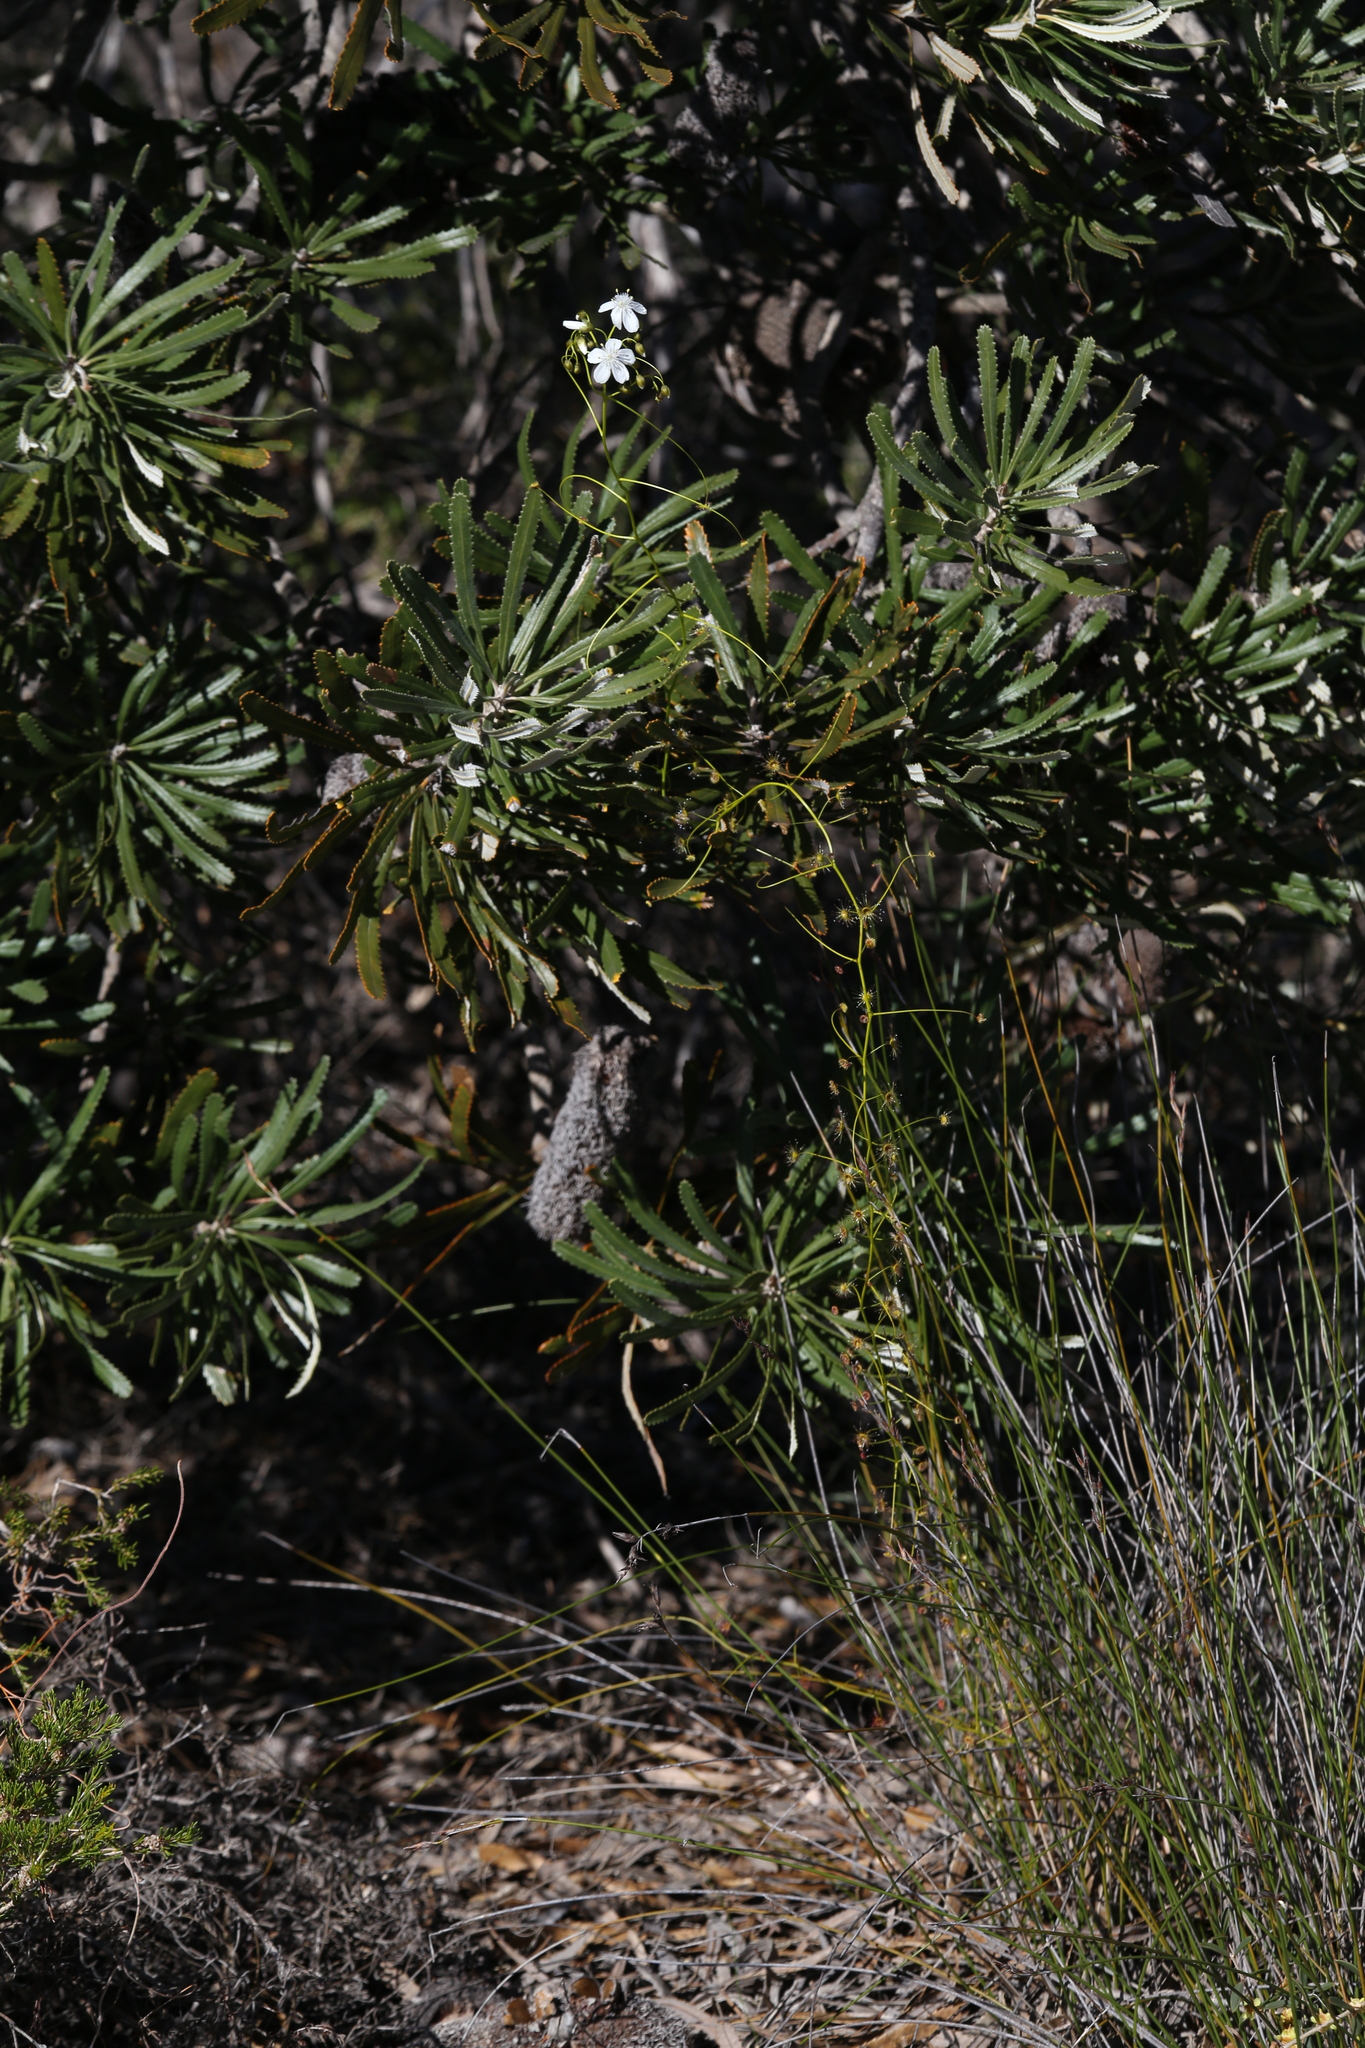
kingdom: Plantae
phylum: Tracheophyta
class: Magnoliopsida
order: Caryophyllales
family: Droseraceae
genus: Drosera
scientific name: Drosera pallida
